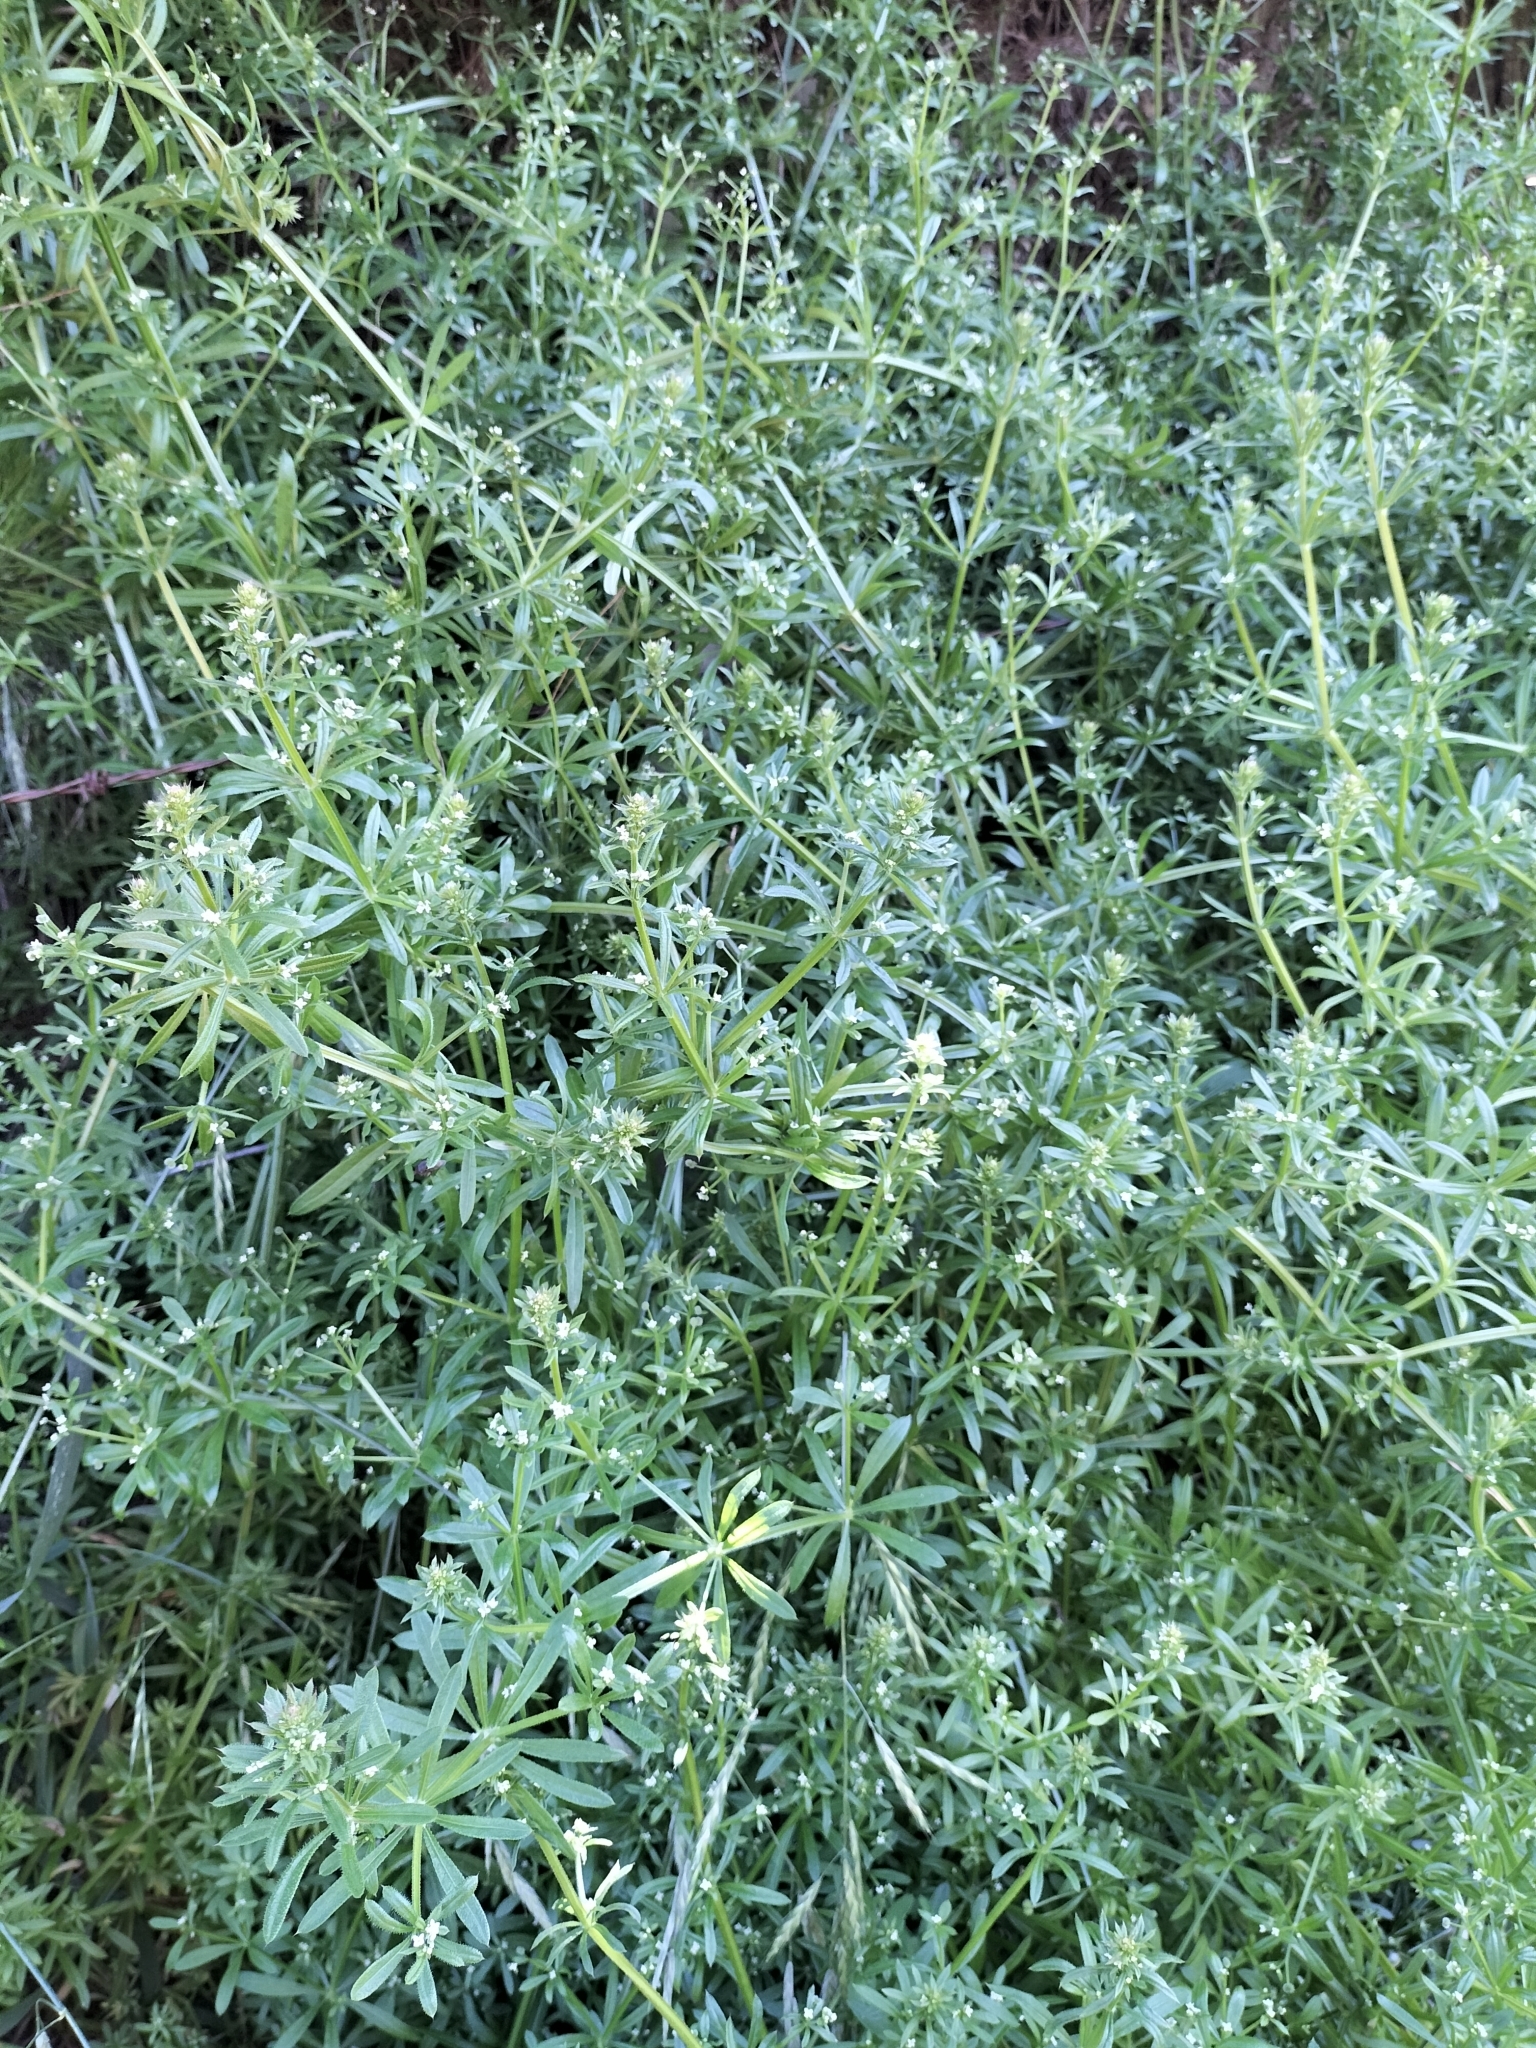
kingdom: Plantae
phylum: Tracheophyta
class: Magnoliopsida
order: Gentianales
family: Rubiaceae
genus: Galium
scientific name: Galium aparine
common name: Cleavers
